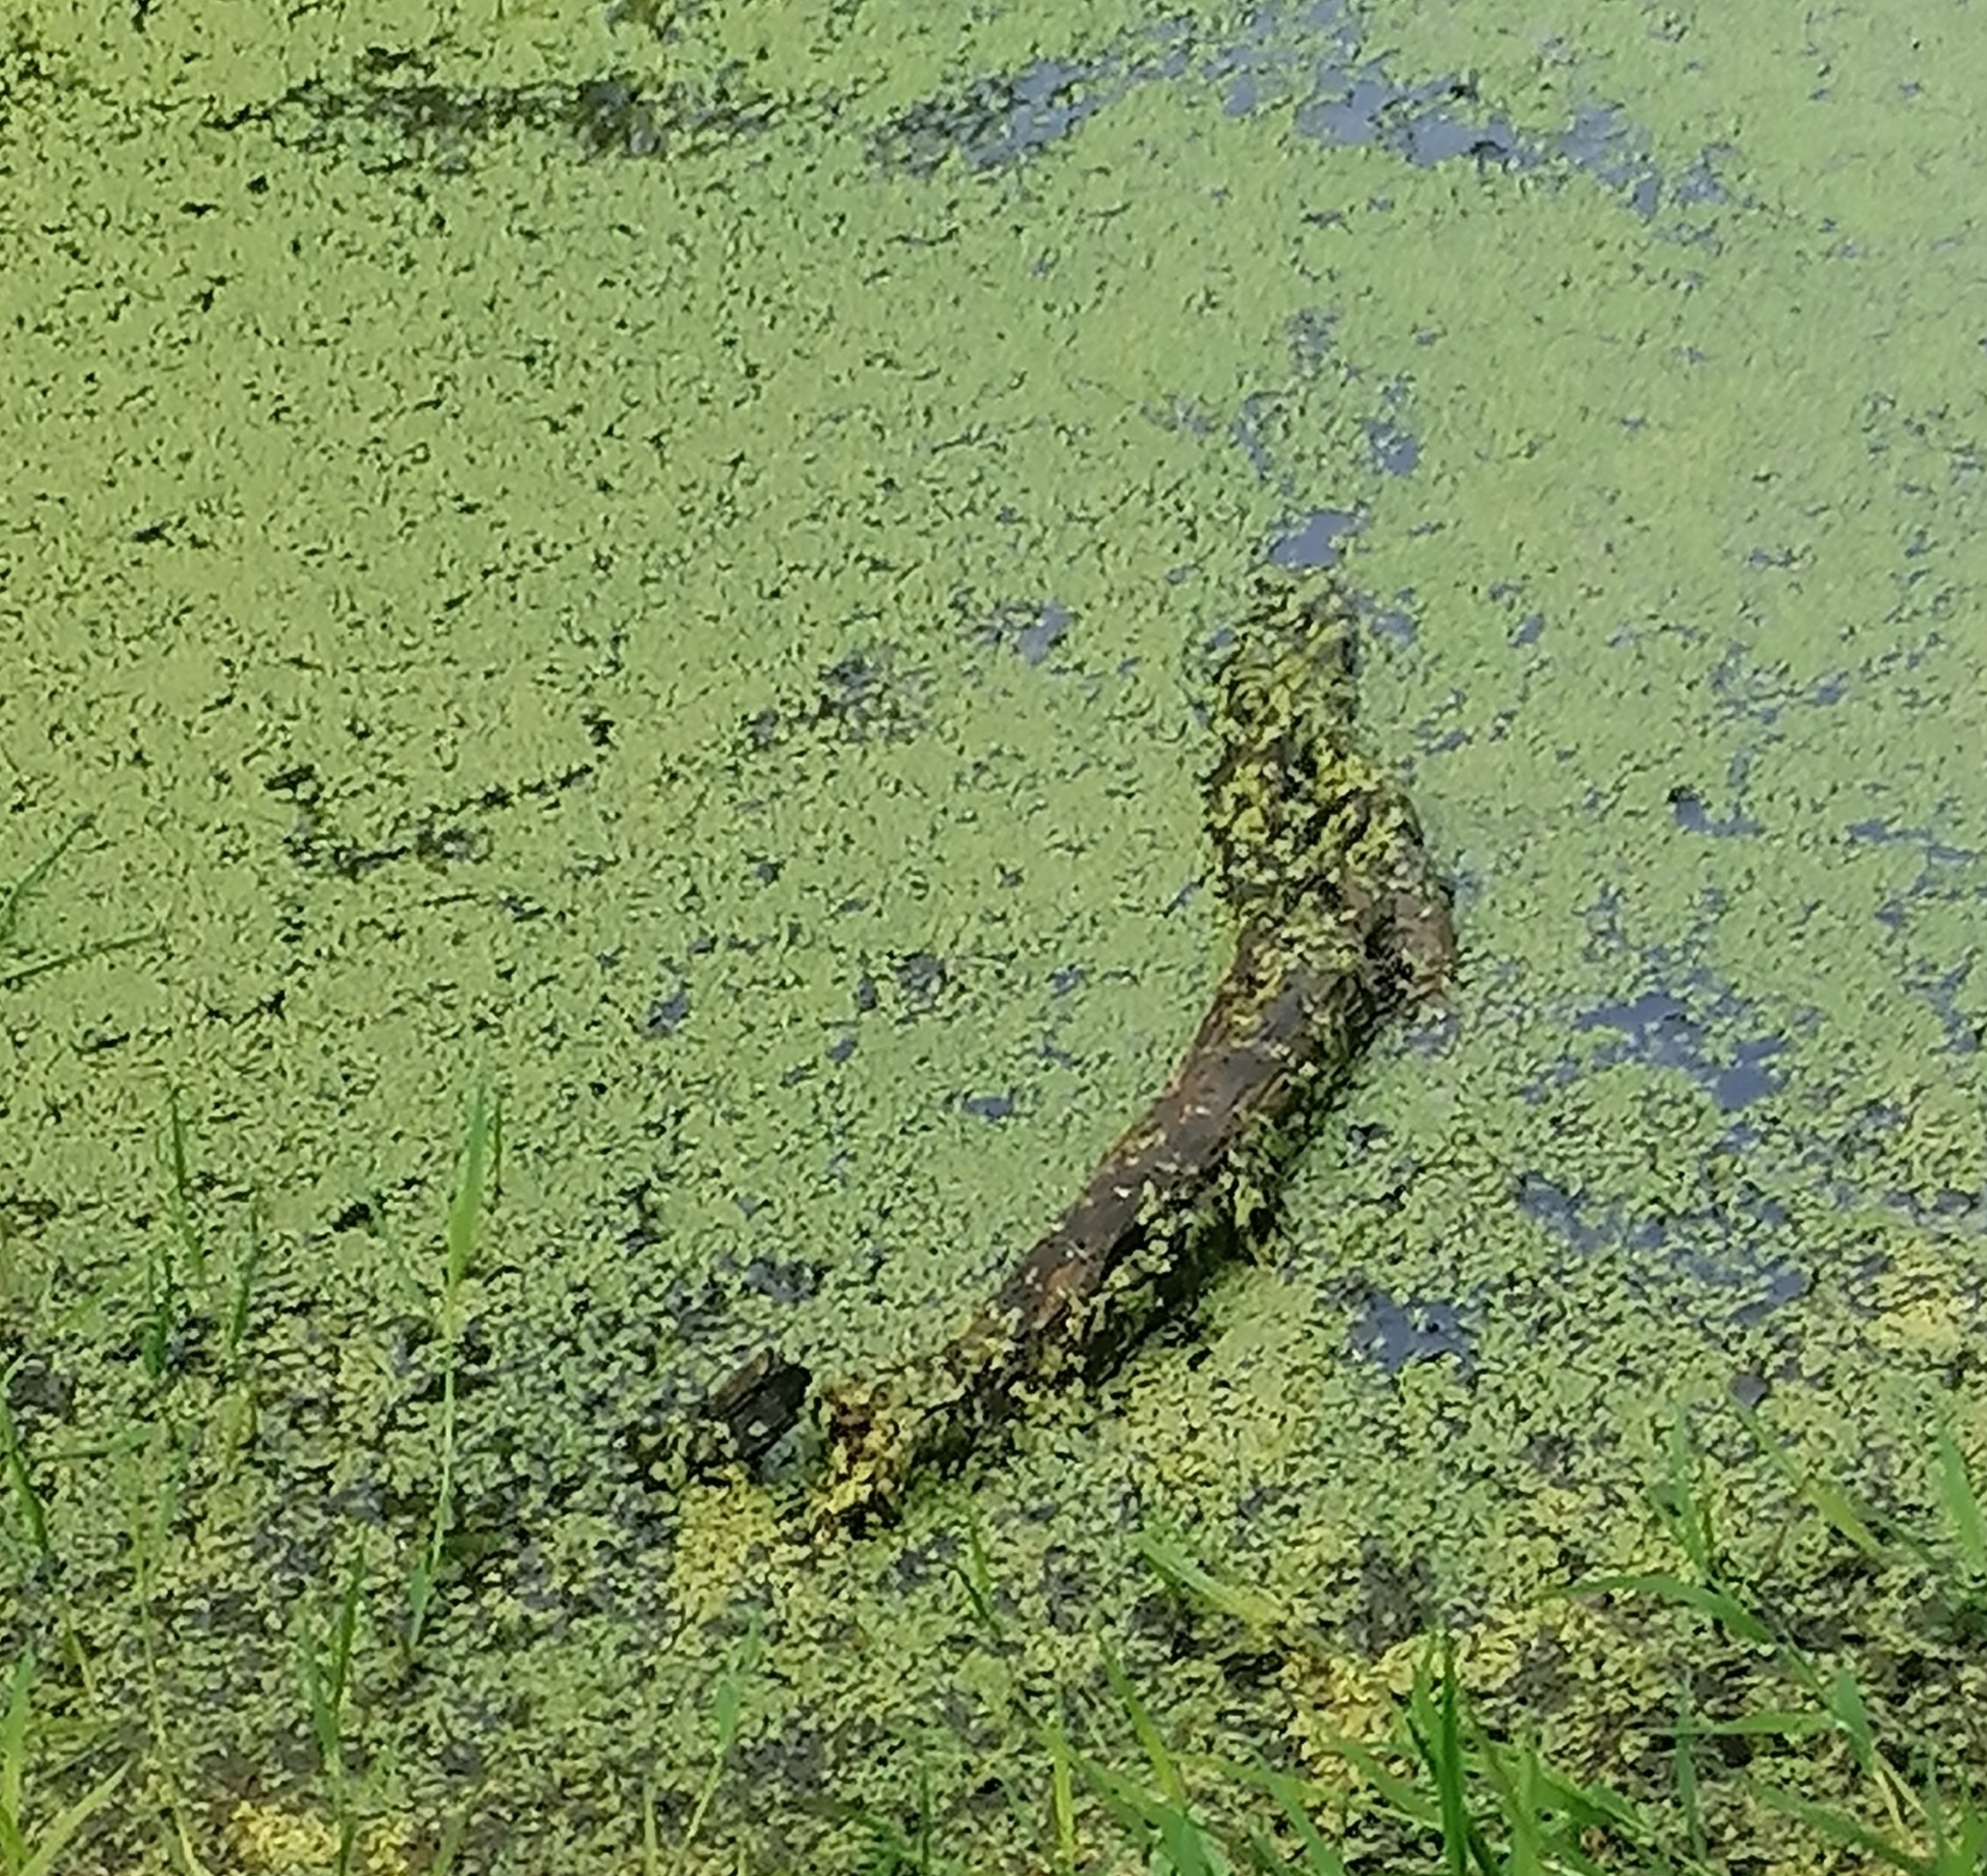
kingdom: Plantae
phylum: Tracheophyta
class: Liliopsida
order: Alismatales
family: Araceae
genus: Lemna
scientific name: Lemna minor
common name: Common duckweed
